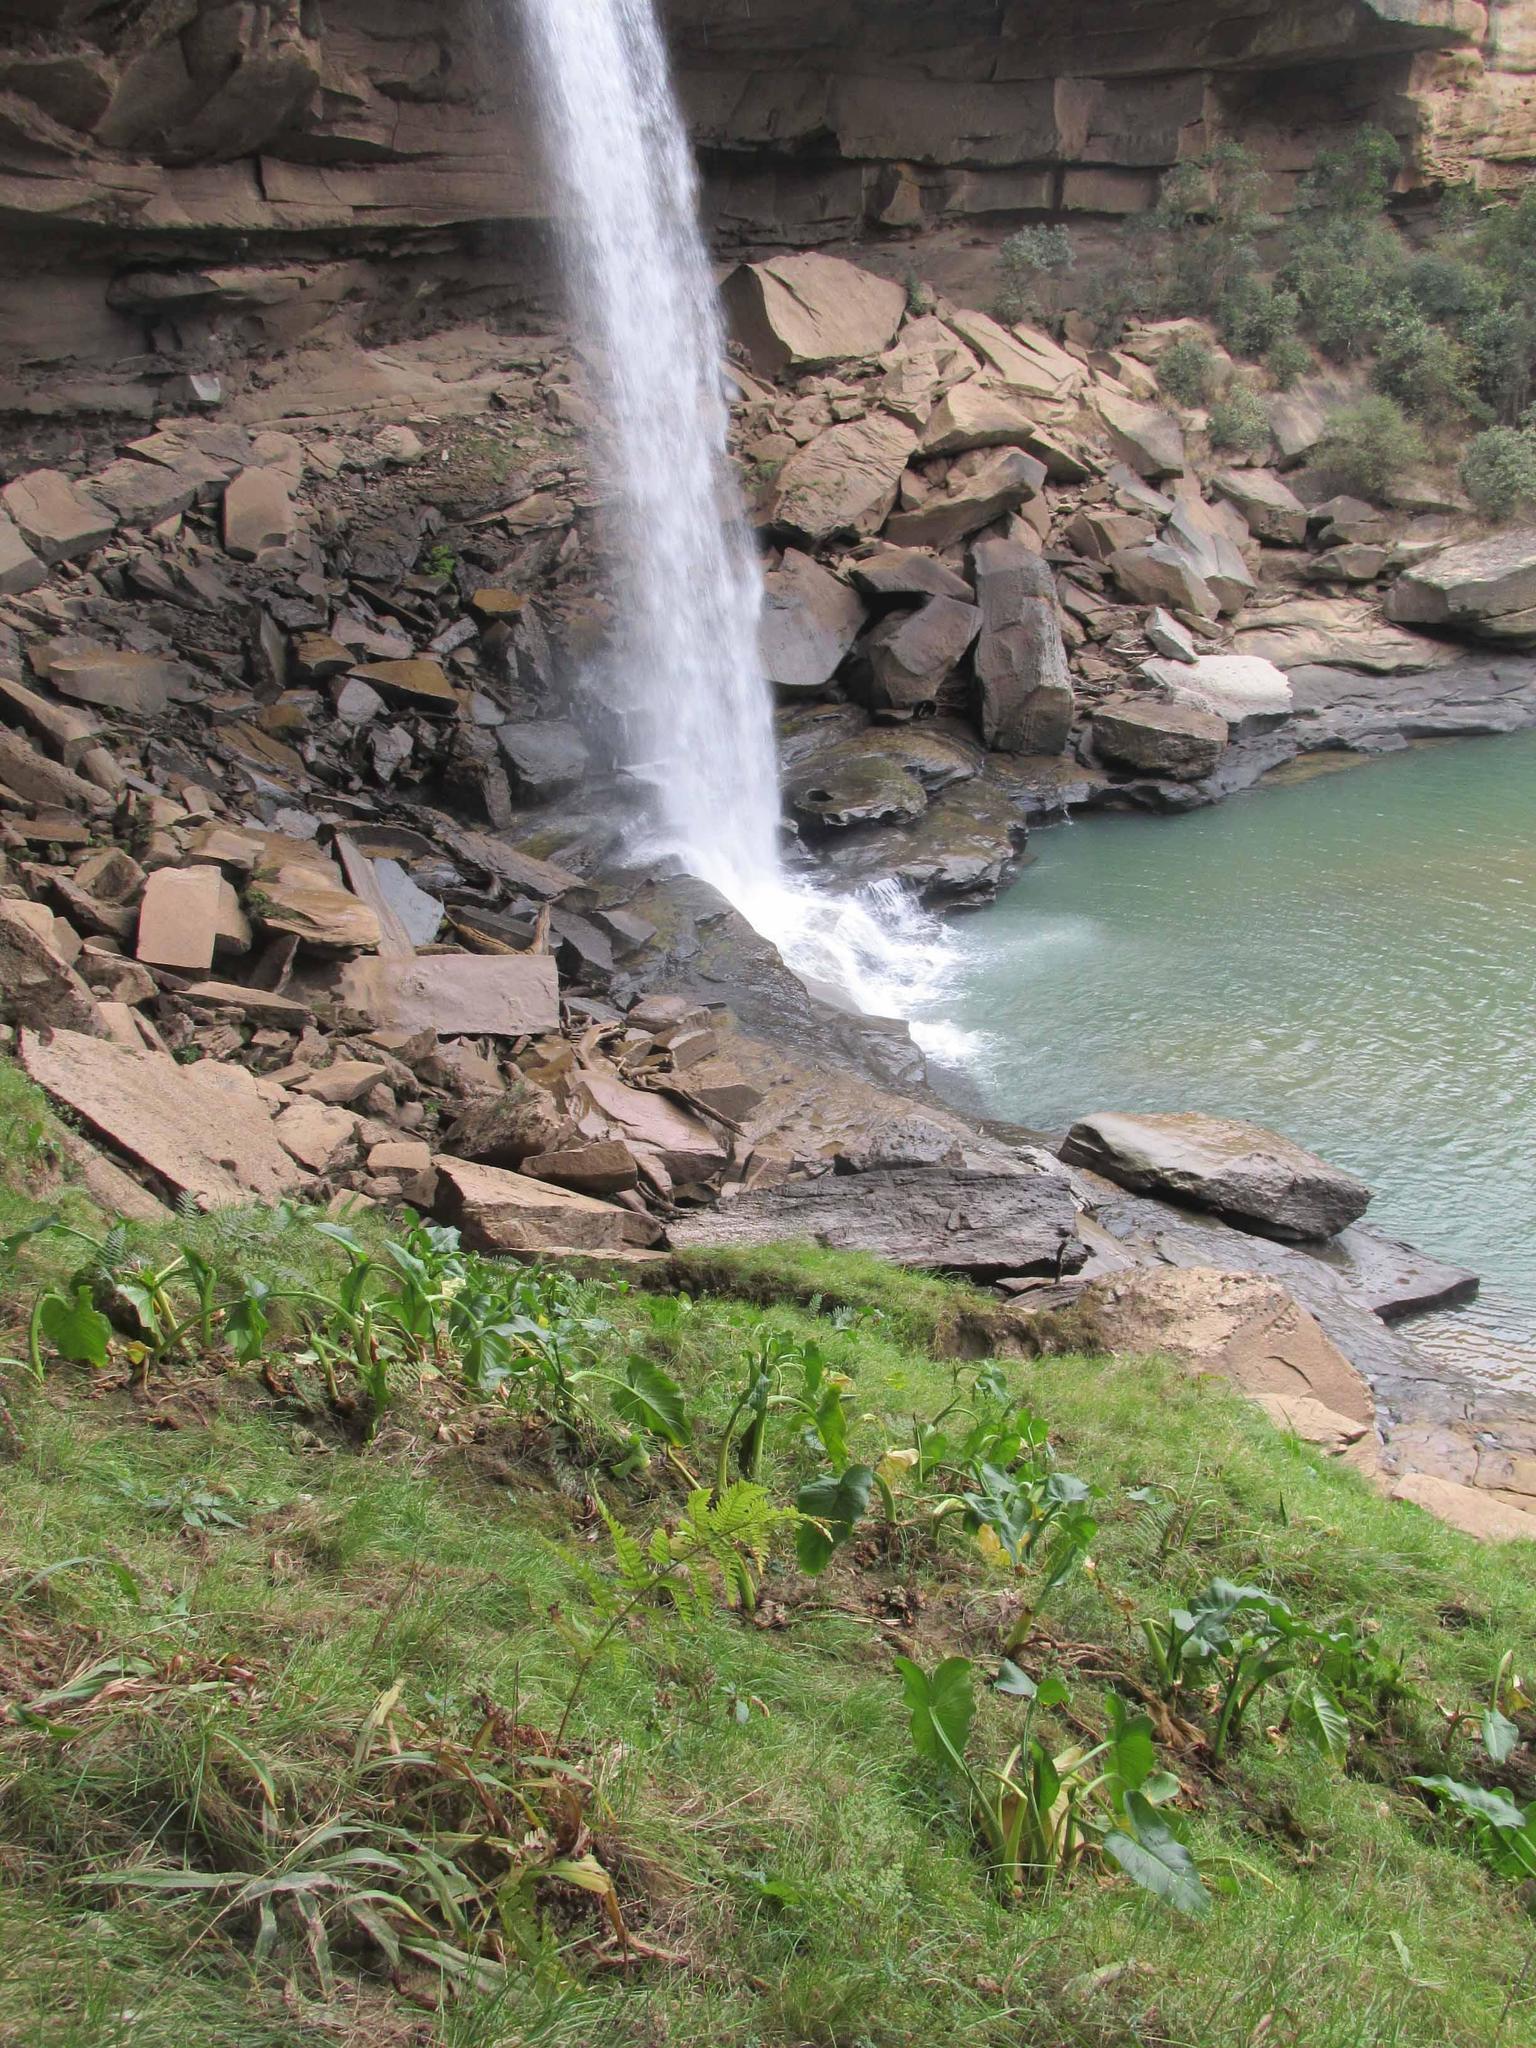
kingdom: Plantae
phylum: Tracheophyta
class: Liliopsida
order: Alismatales
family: Araceae
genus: Zantedeschia
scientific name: Zantedeschia aethiopica
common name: Altar-lily
